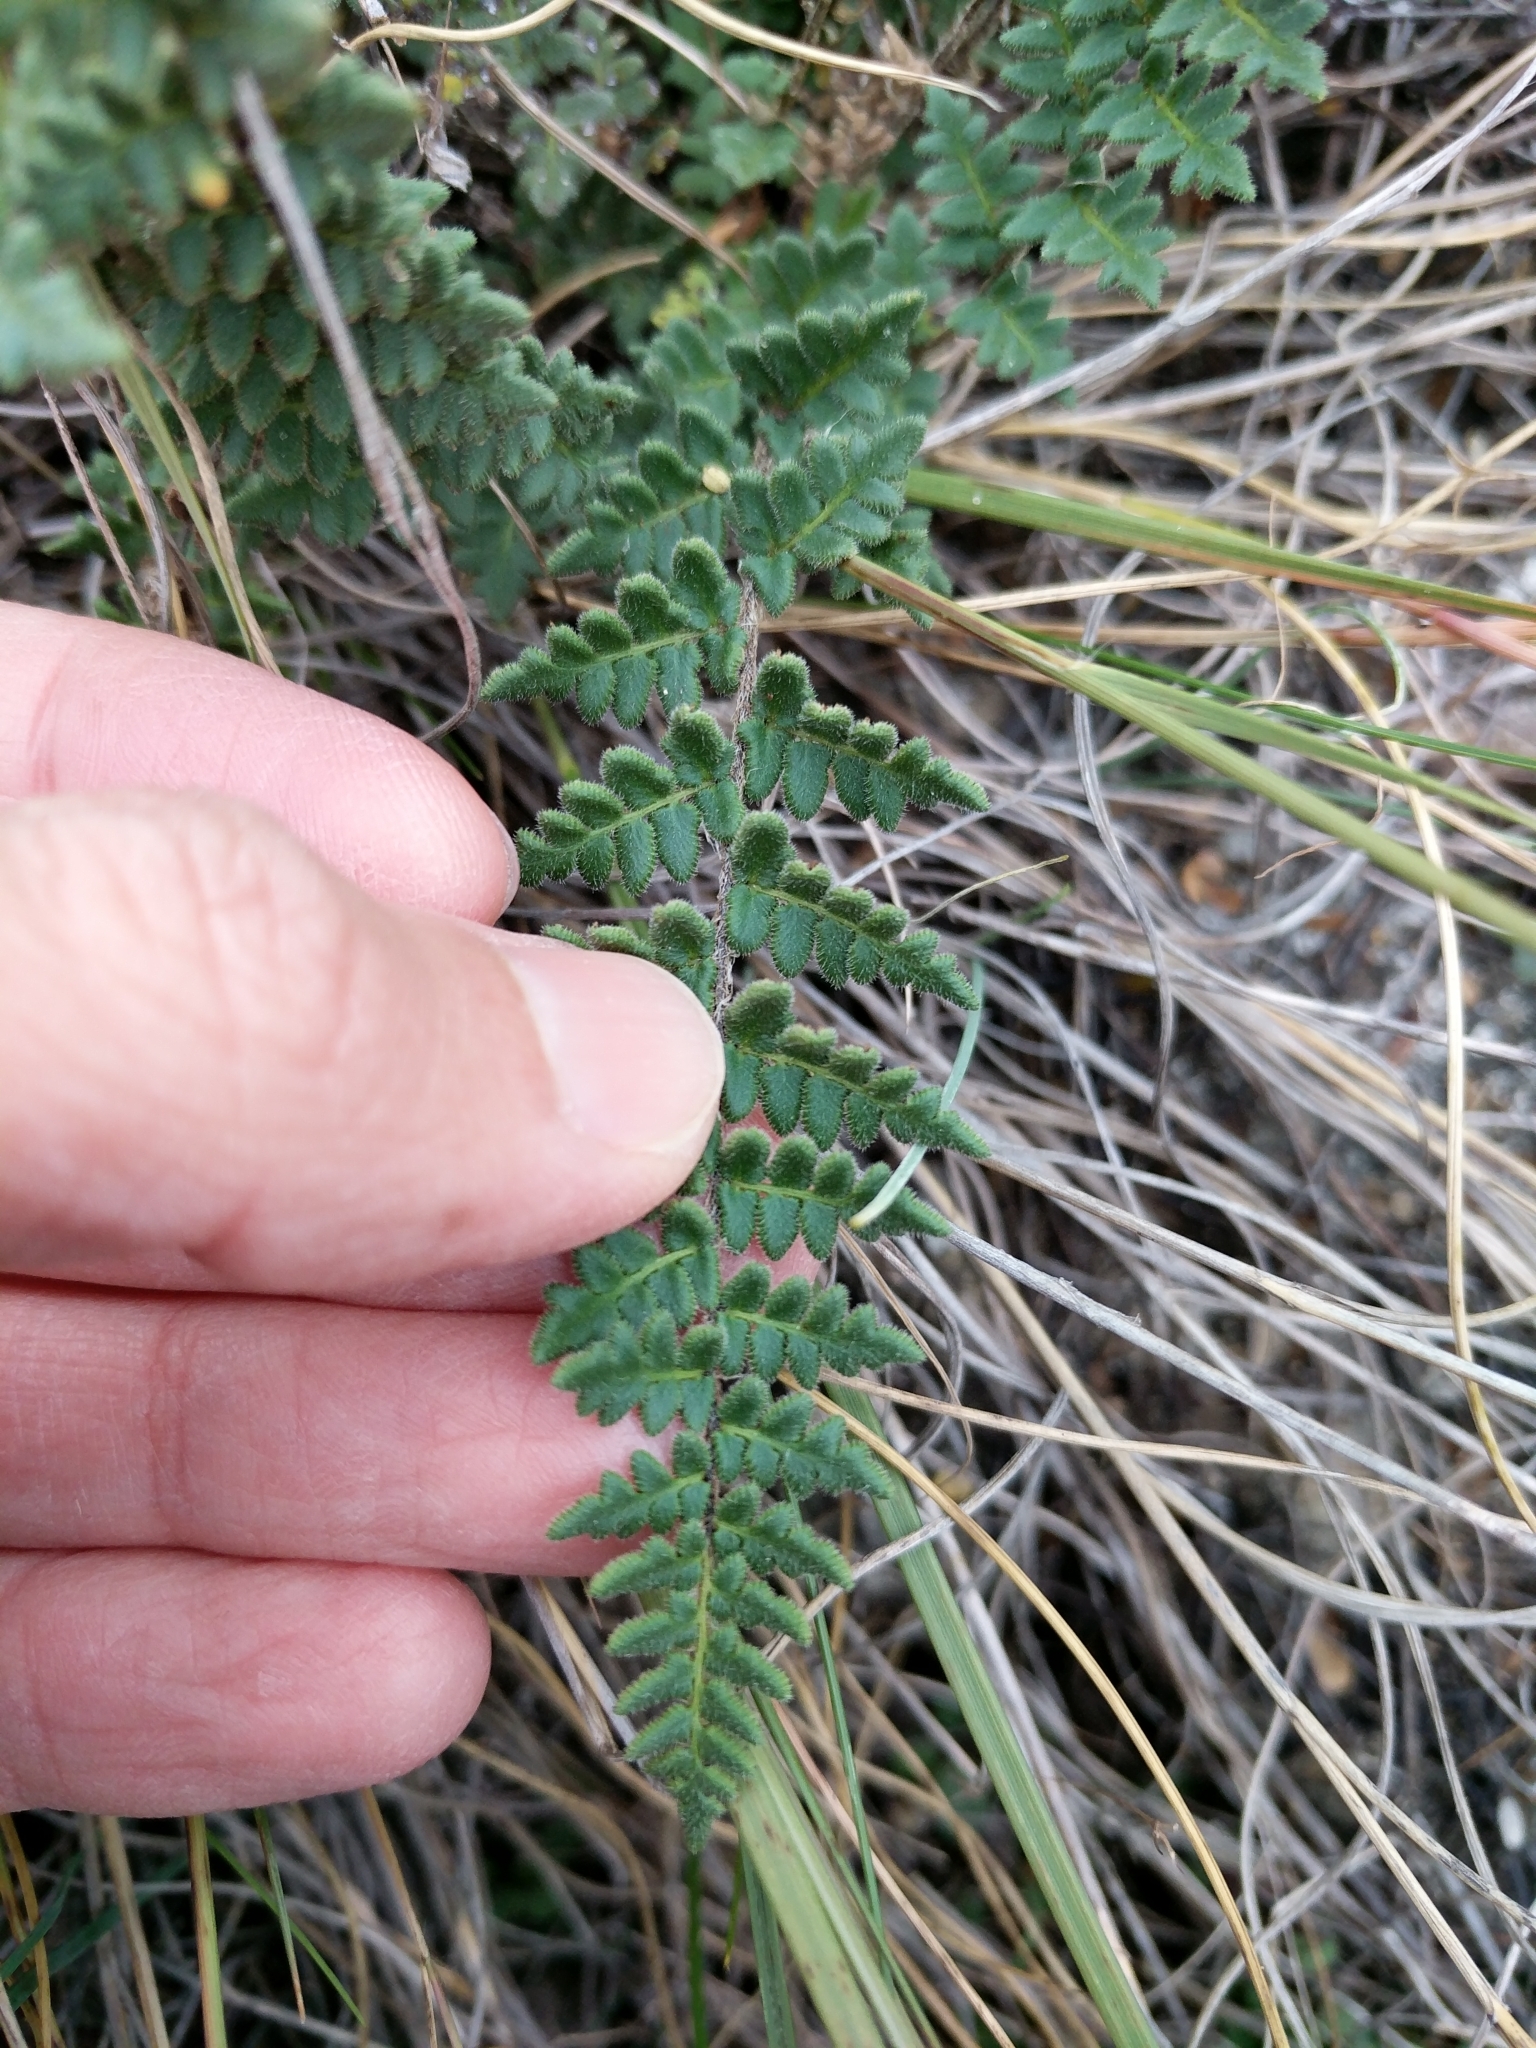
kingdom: Plantae
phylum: Tracheophyta
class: Polypodiopsida
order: Polypodiales
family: Pteridaceae
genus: Myriopteris
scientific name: Myriopteris scabra
